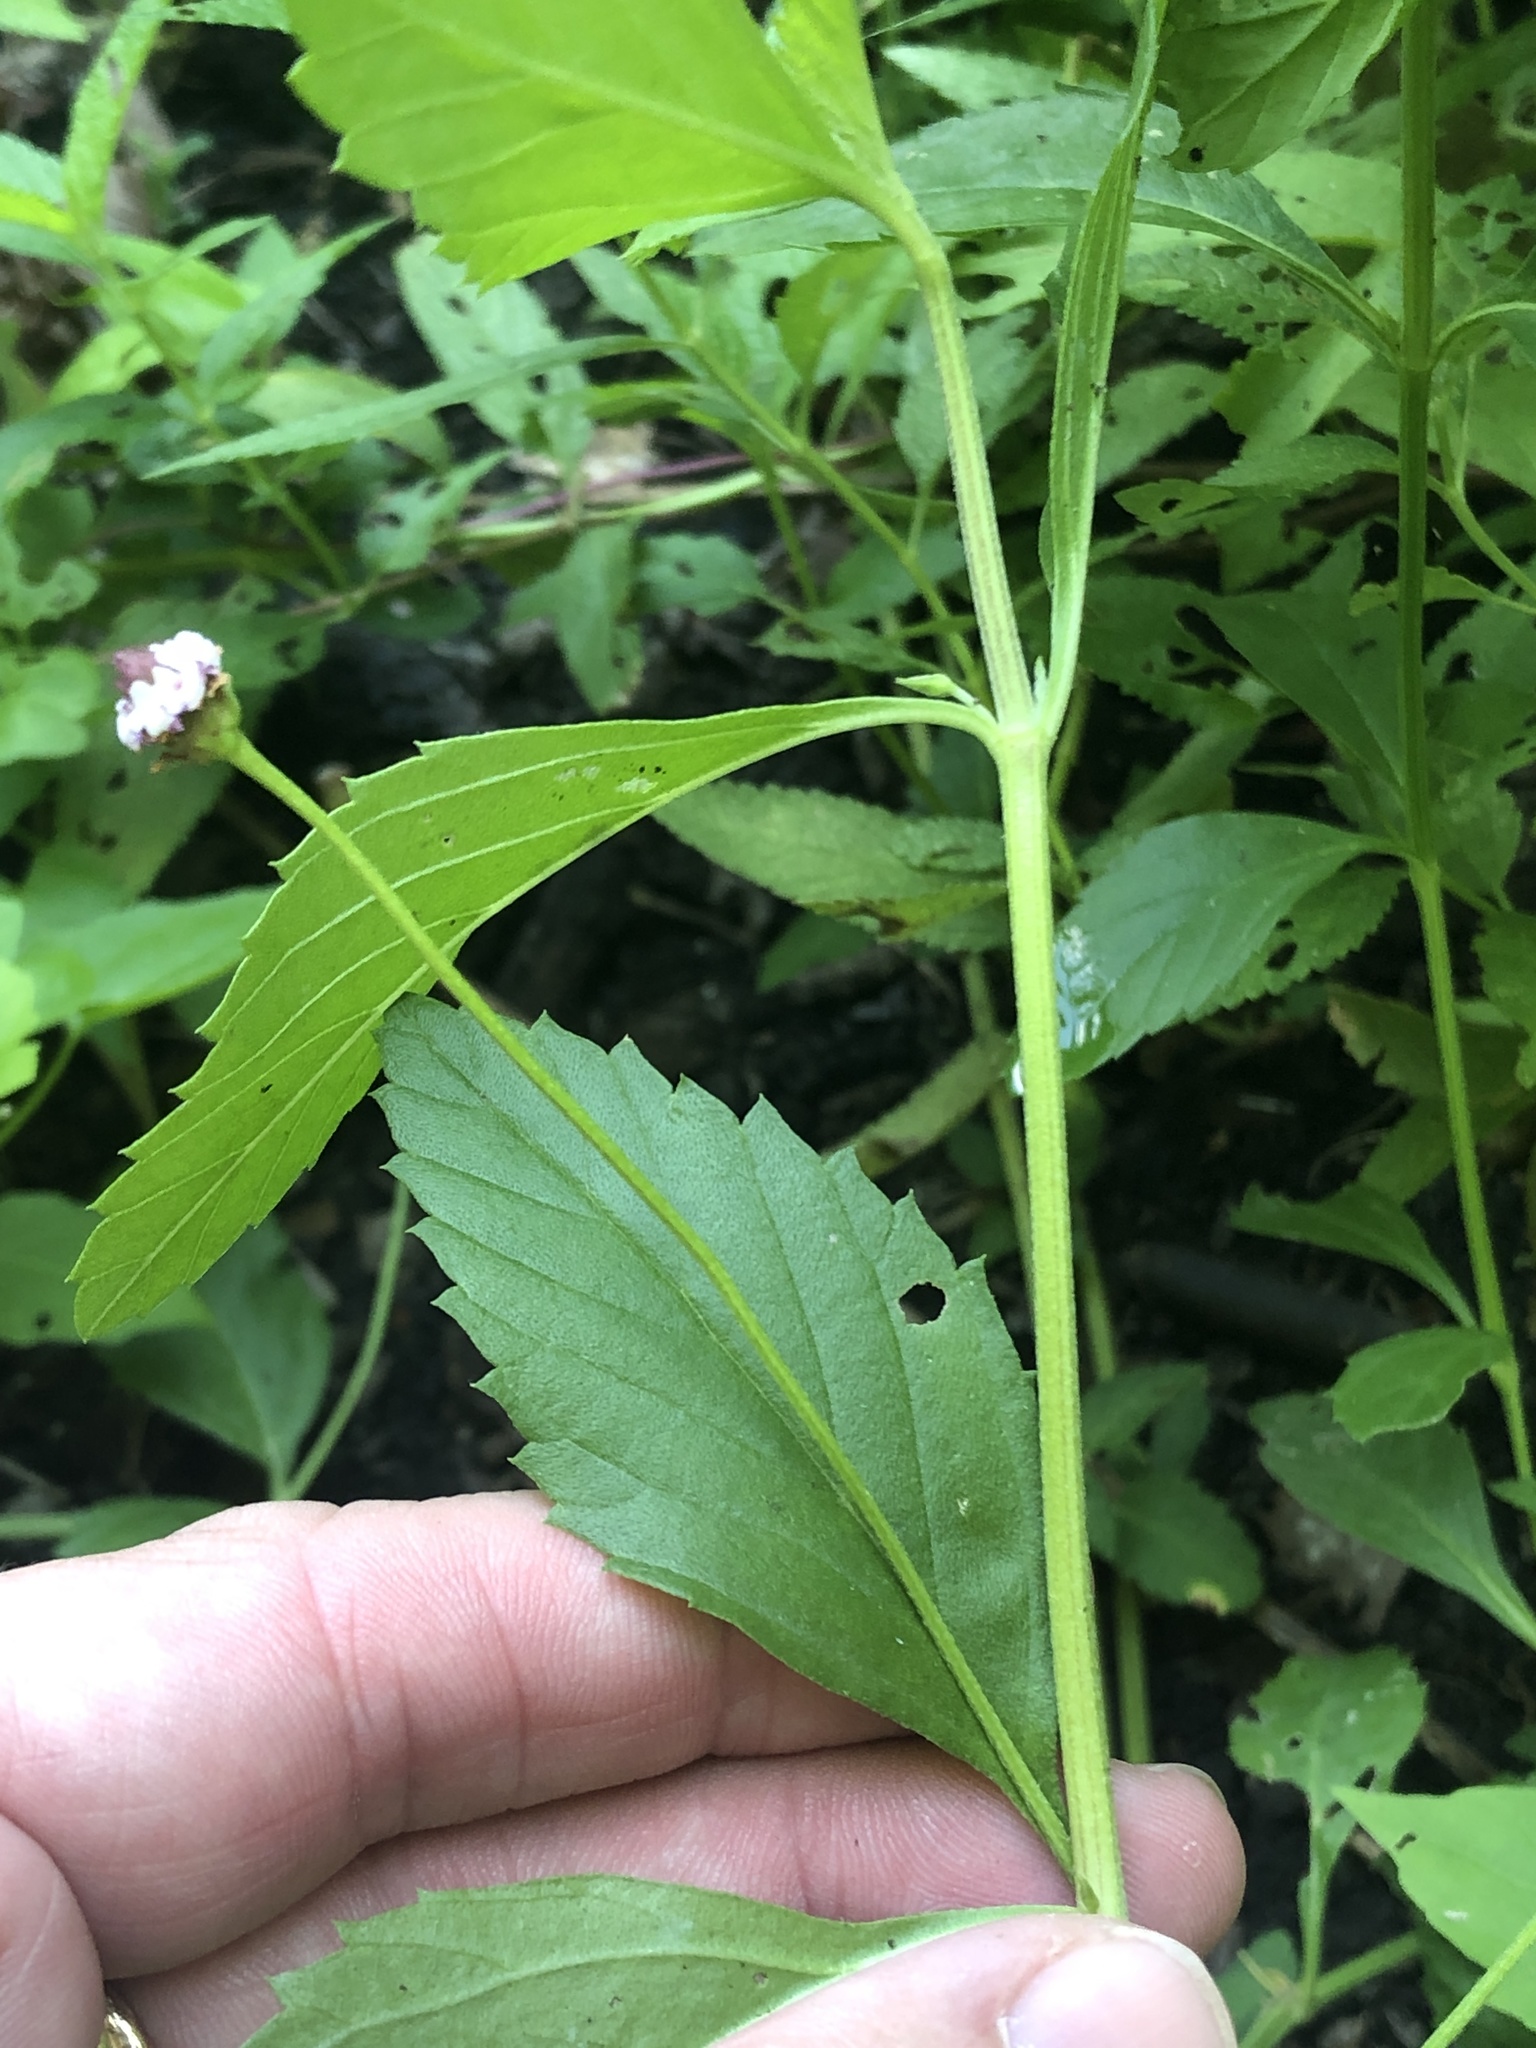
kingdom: Plantae
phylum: Tracheophyta
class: Magnoliopsida
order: Lamiales
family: Verbenaceae
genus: Phyla
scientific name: Phyla lanceolata
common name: Northern fogfruit
